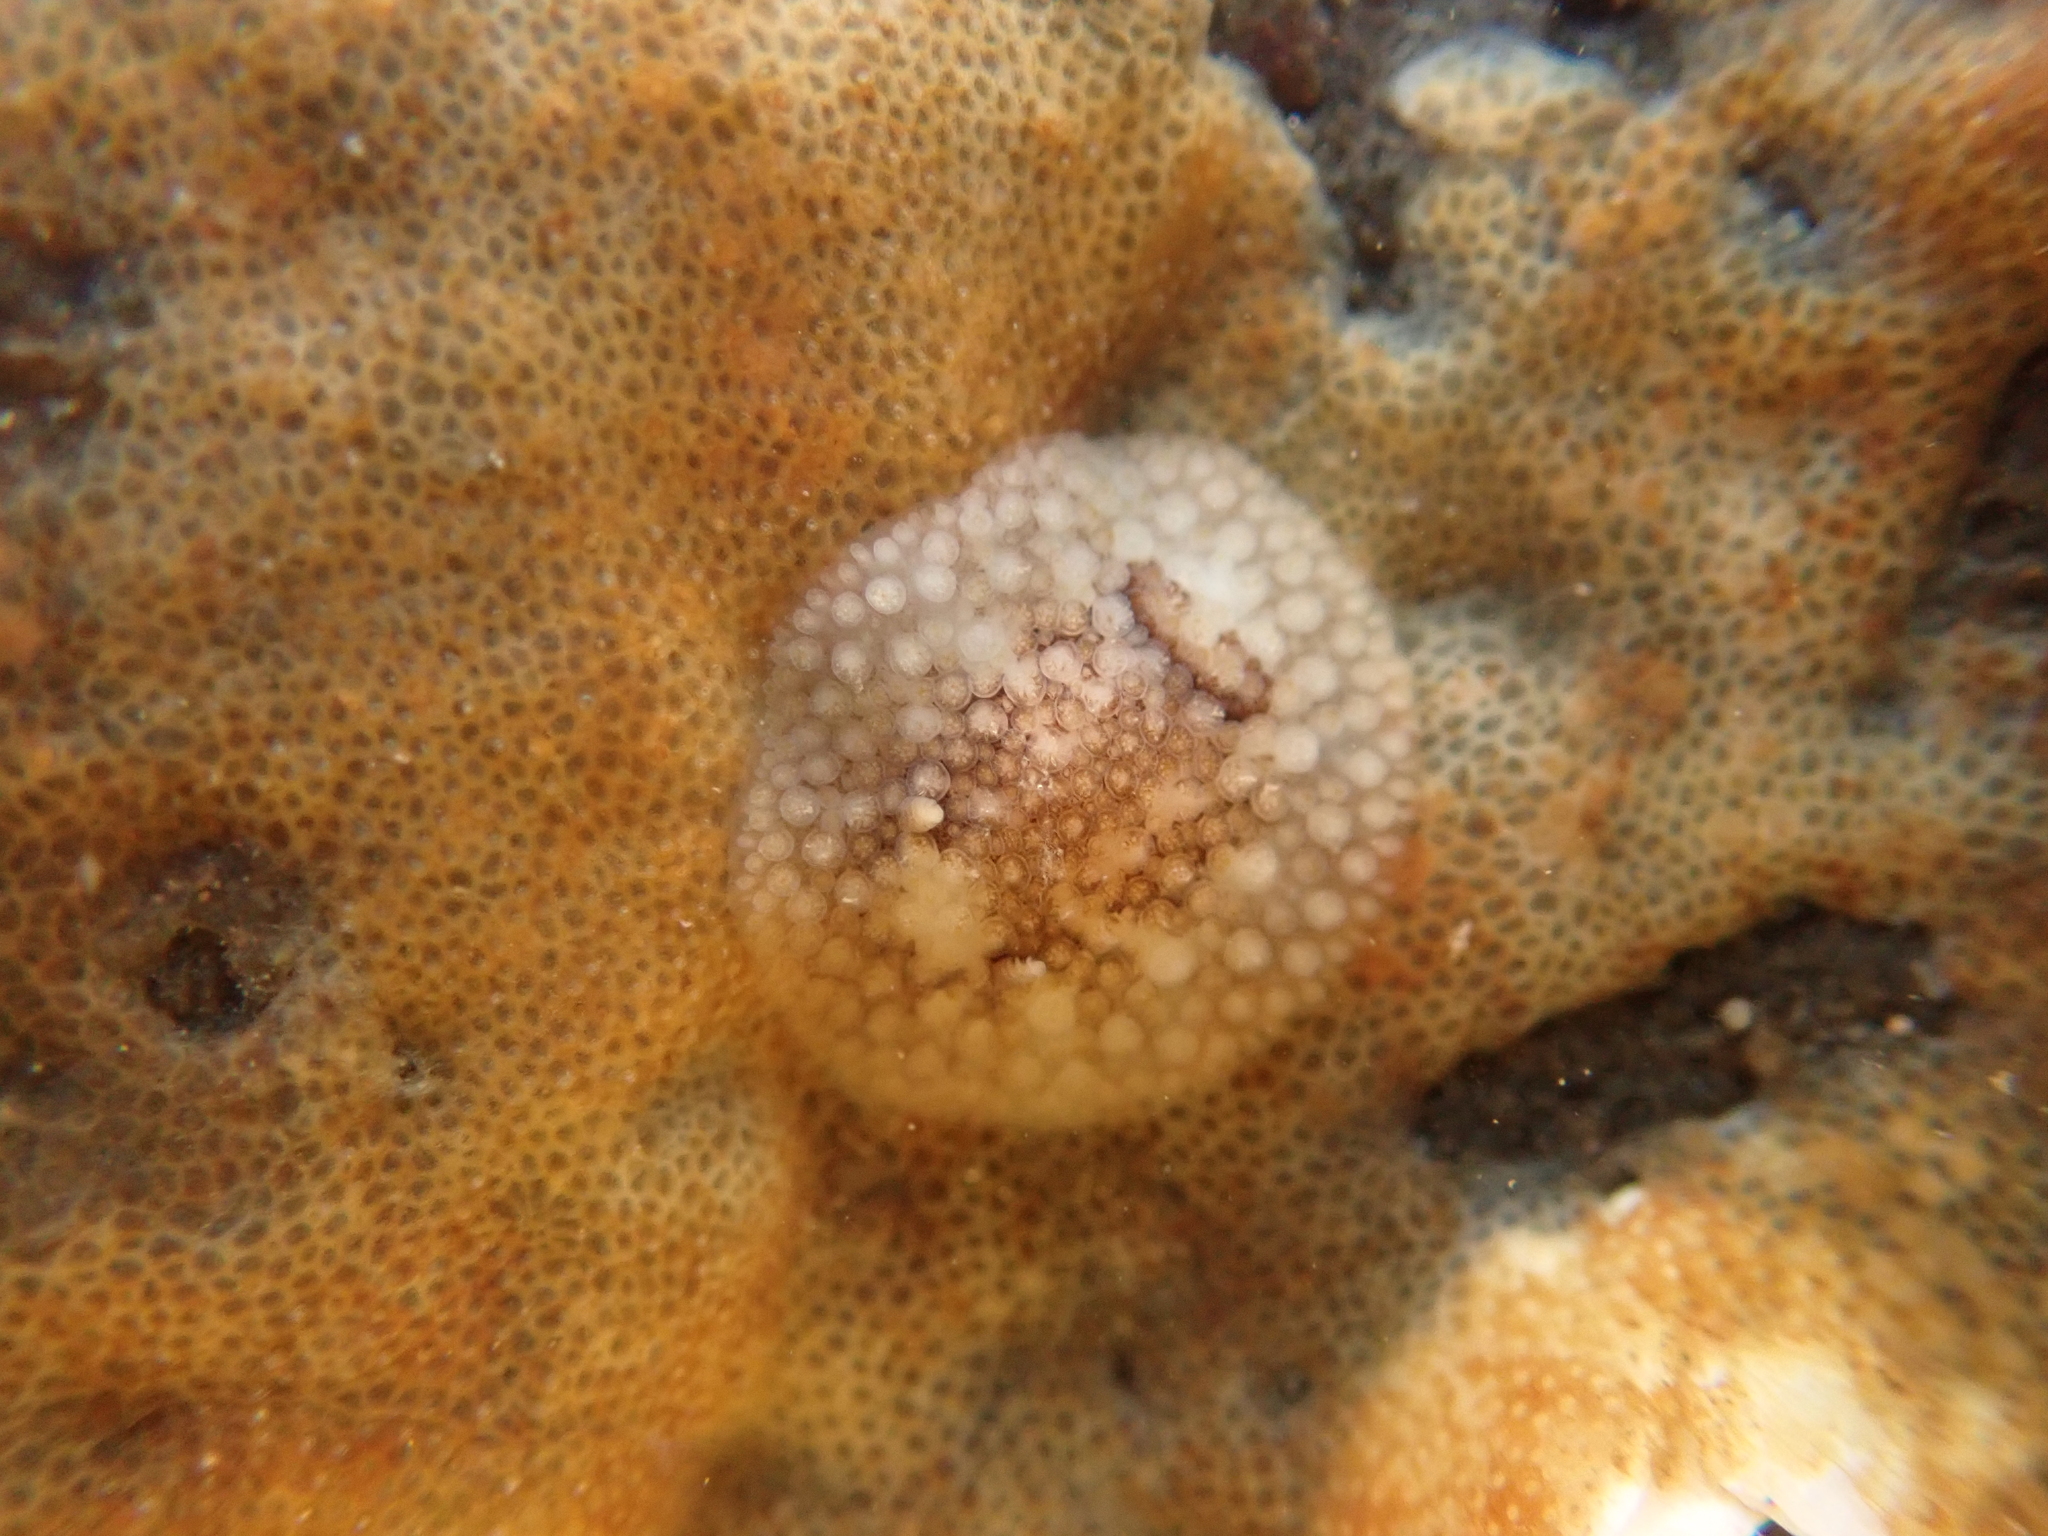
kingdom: Animalia
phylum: Mollusca
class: Gastropoda
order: Nudibranchia
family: Onchidorididae
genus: Onchidoris
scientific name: Onchidoris bilamellata
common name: Barnacle-eating onchidoris
